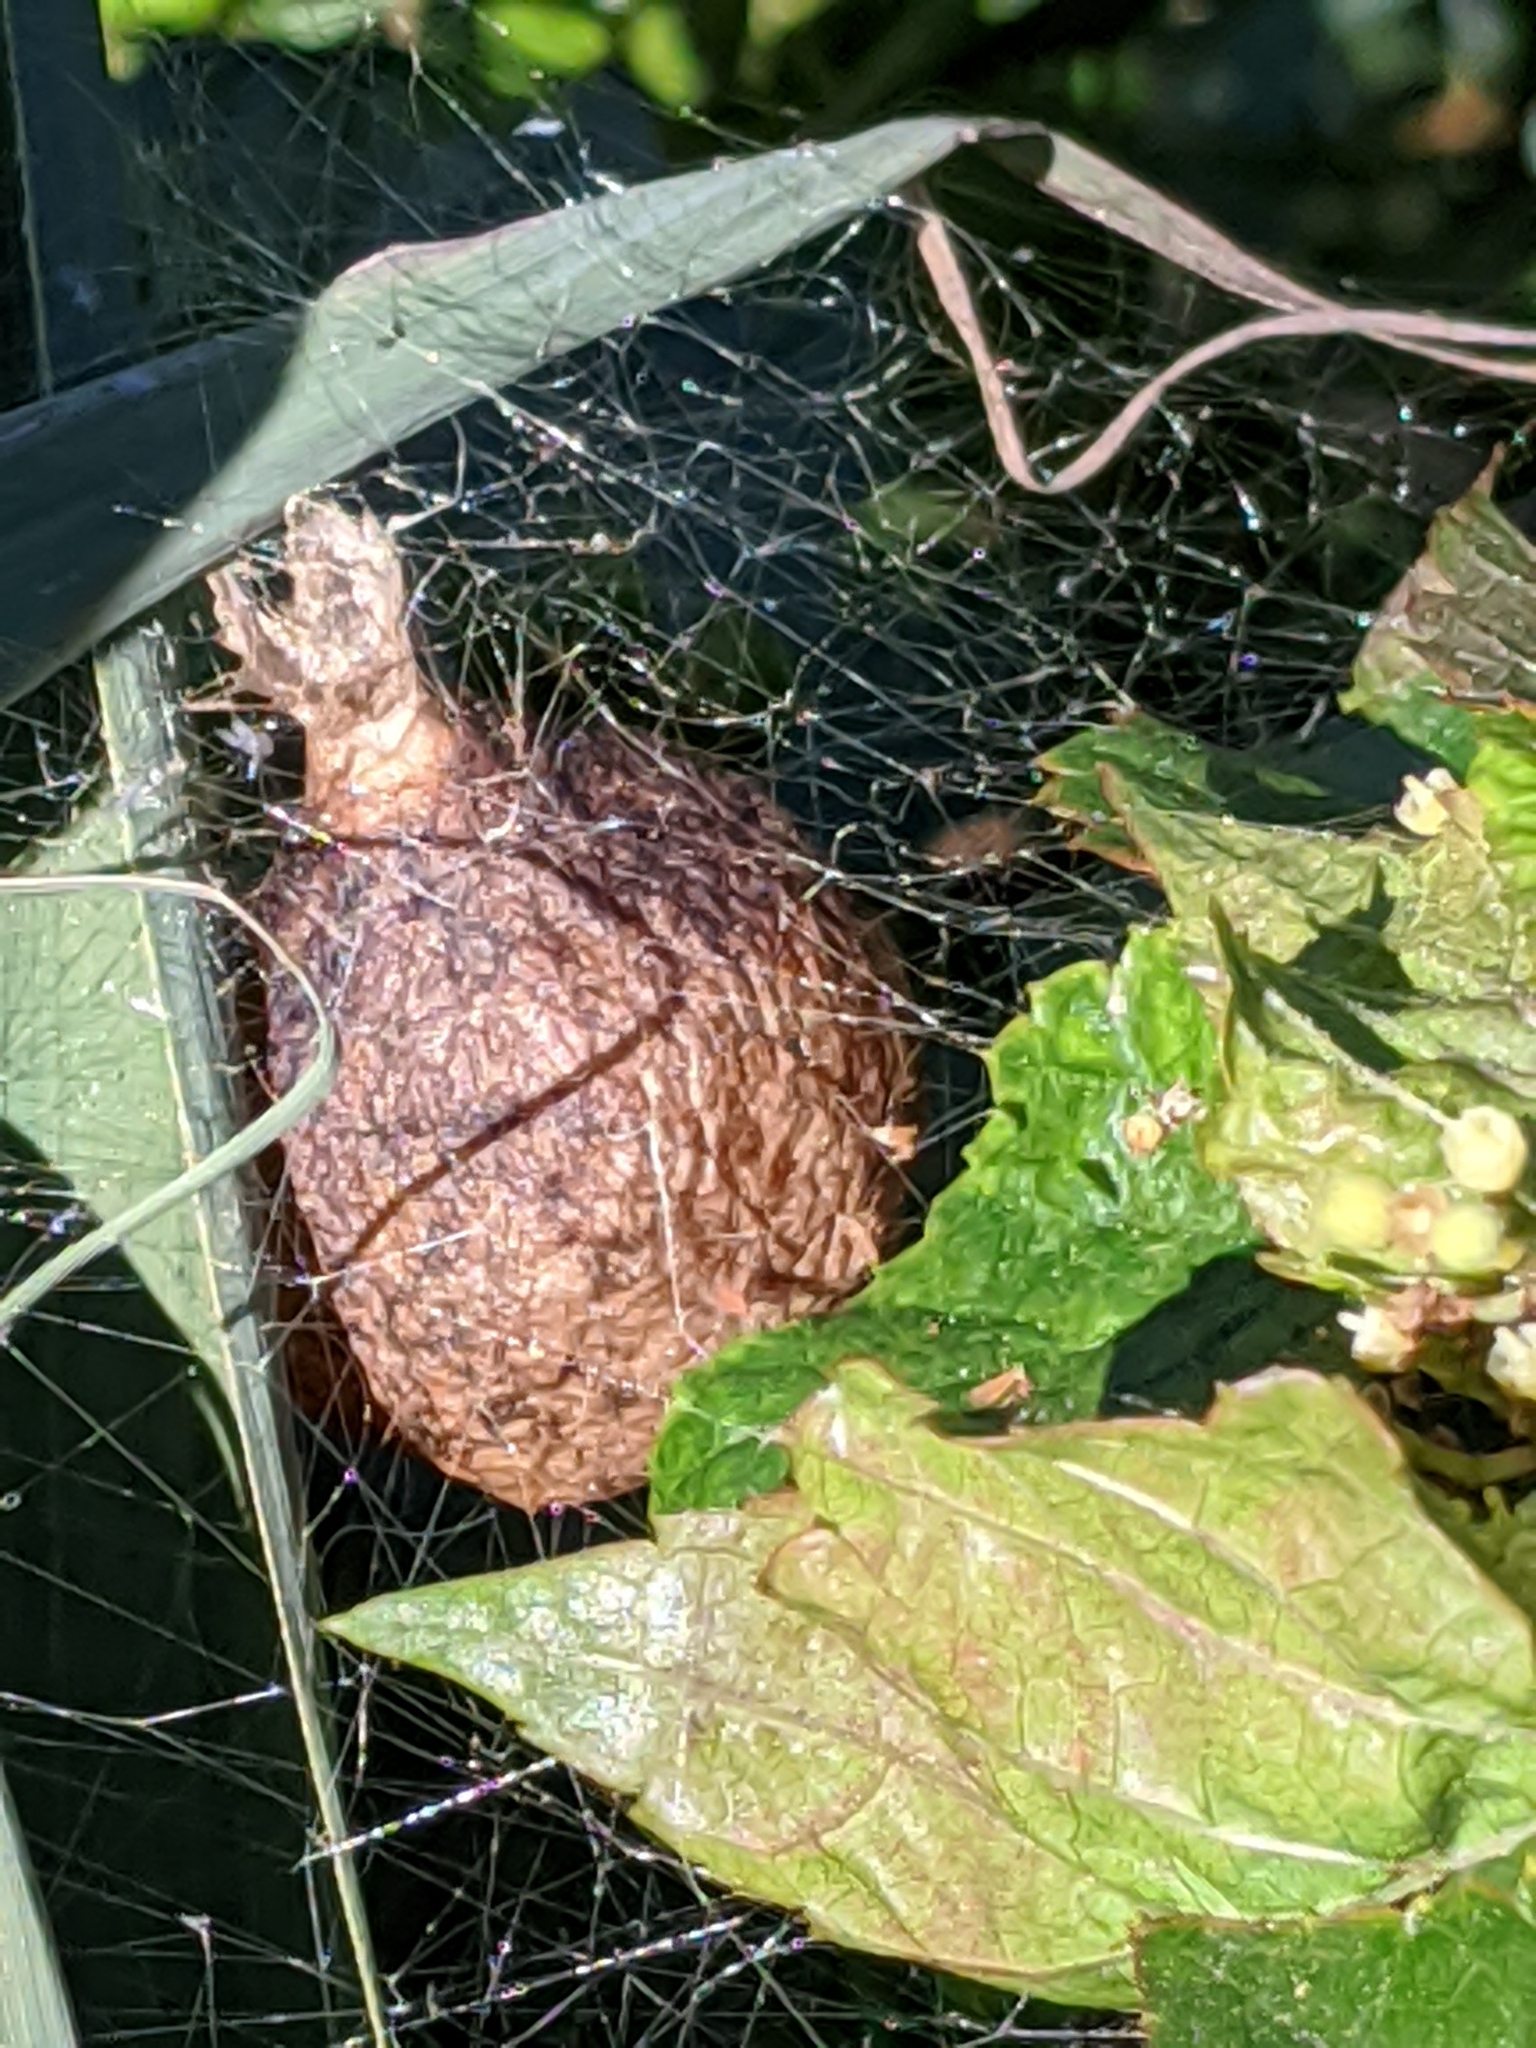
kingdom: Animalia
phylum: Arthropoda
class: Arachnida
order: Araneae
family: Araneidae
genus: Argiope
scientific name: Argiope aurantia
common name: Orb weavers
